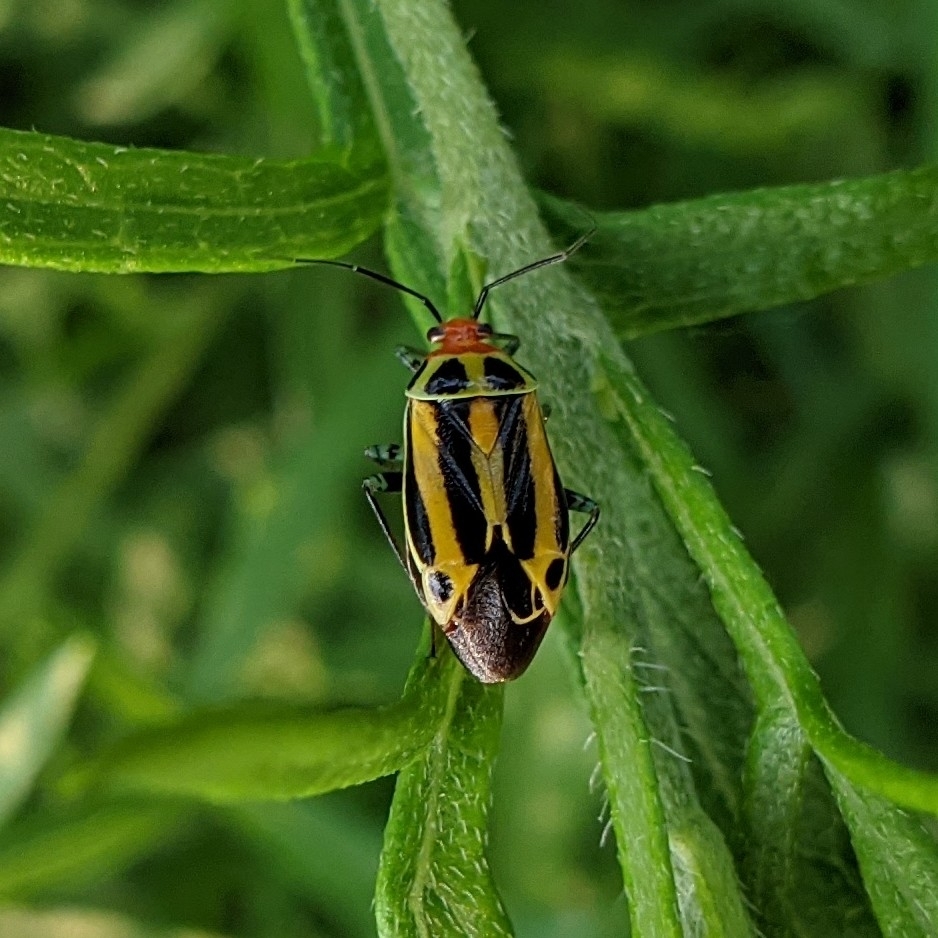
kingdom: Animalia
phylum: Arthropoda
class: Insecta
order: Hemiptera
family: Miridae
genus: Poecilocapsus
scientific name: Poecilocapsus lineatus
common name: Four-lined plant bug
